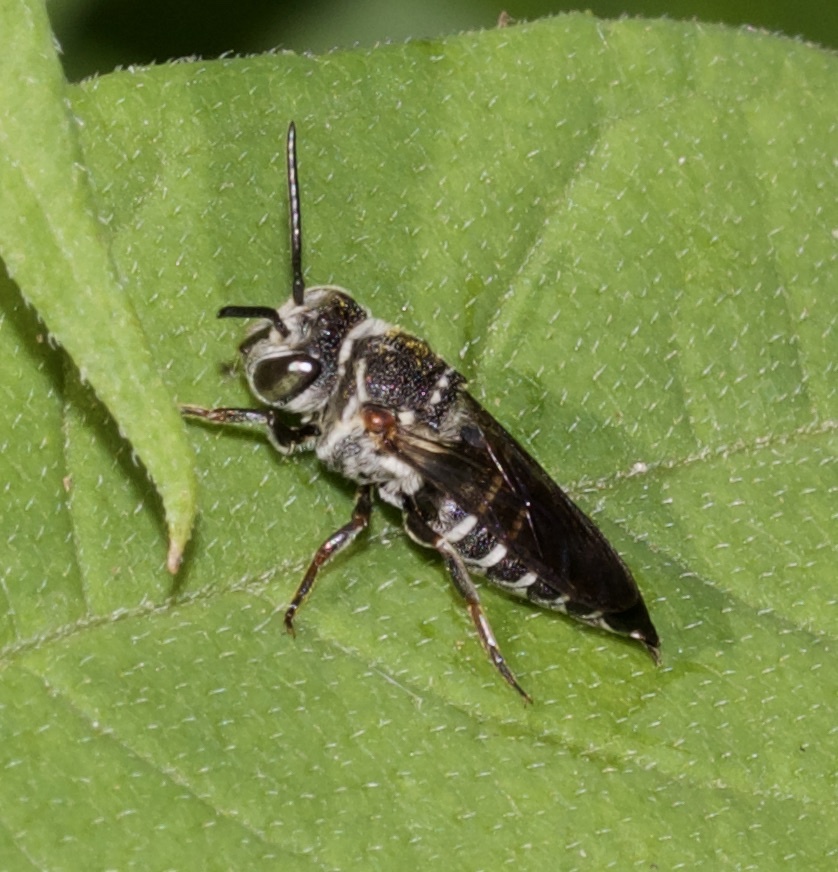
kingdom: Animalia
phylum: Arthropoda
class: Insecta
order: Hymenoptera
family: Megachilidae
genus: Coelioxys
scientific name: Coelioxys sayi
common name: Say's cuckoo leaf-cutter bee
